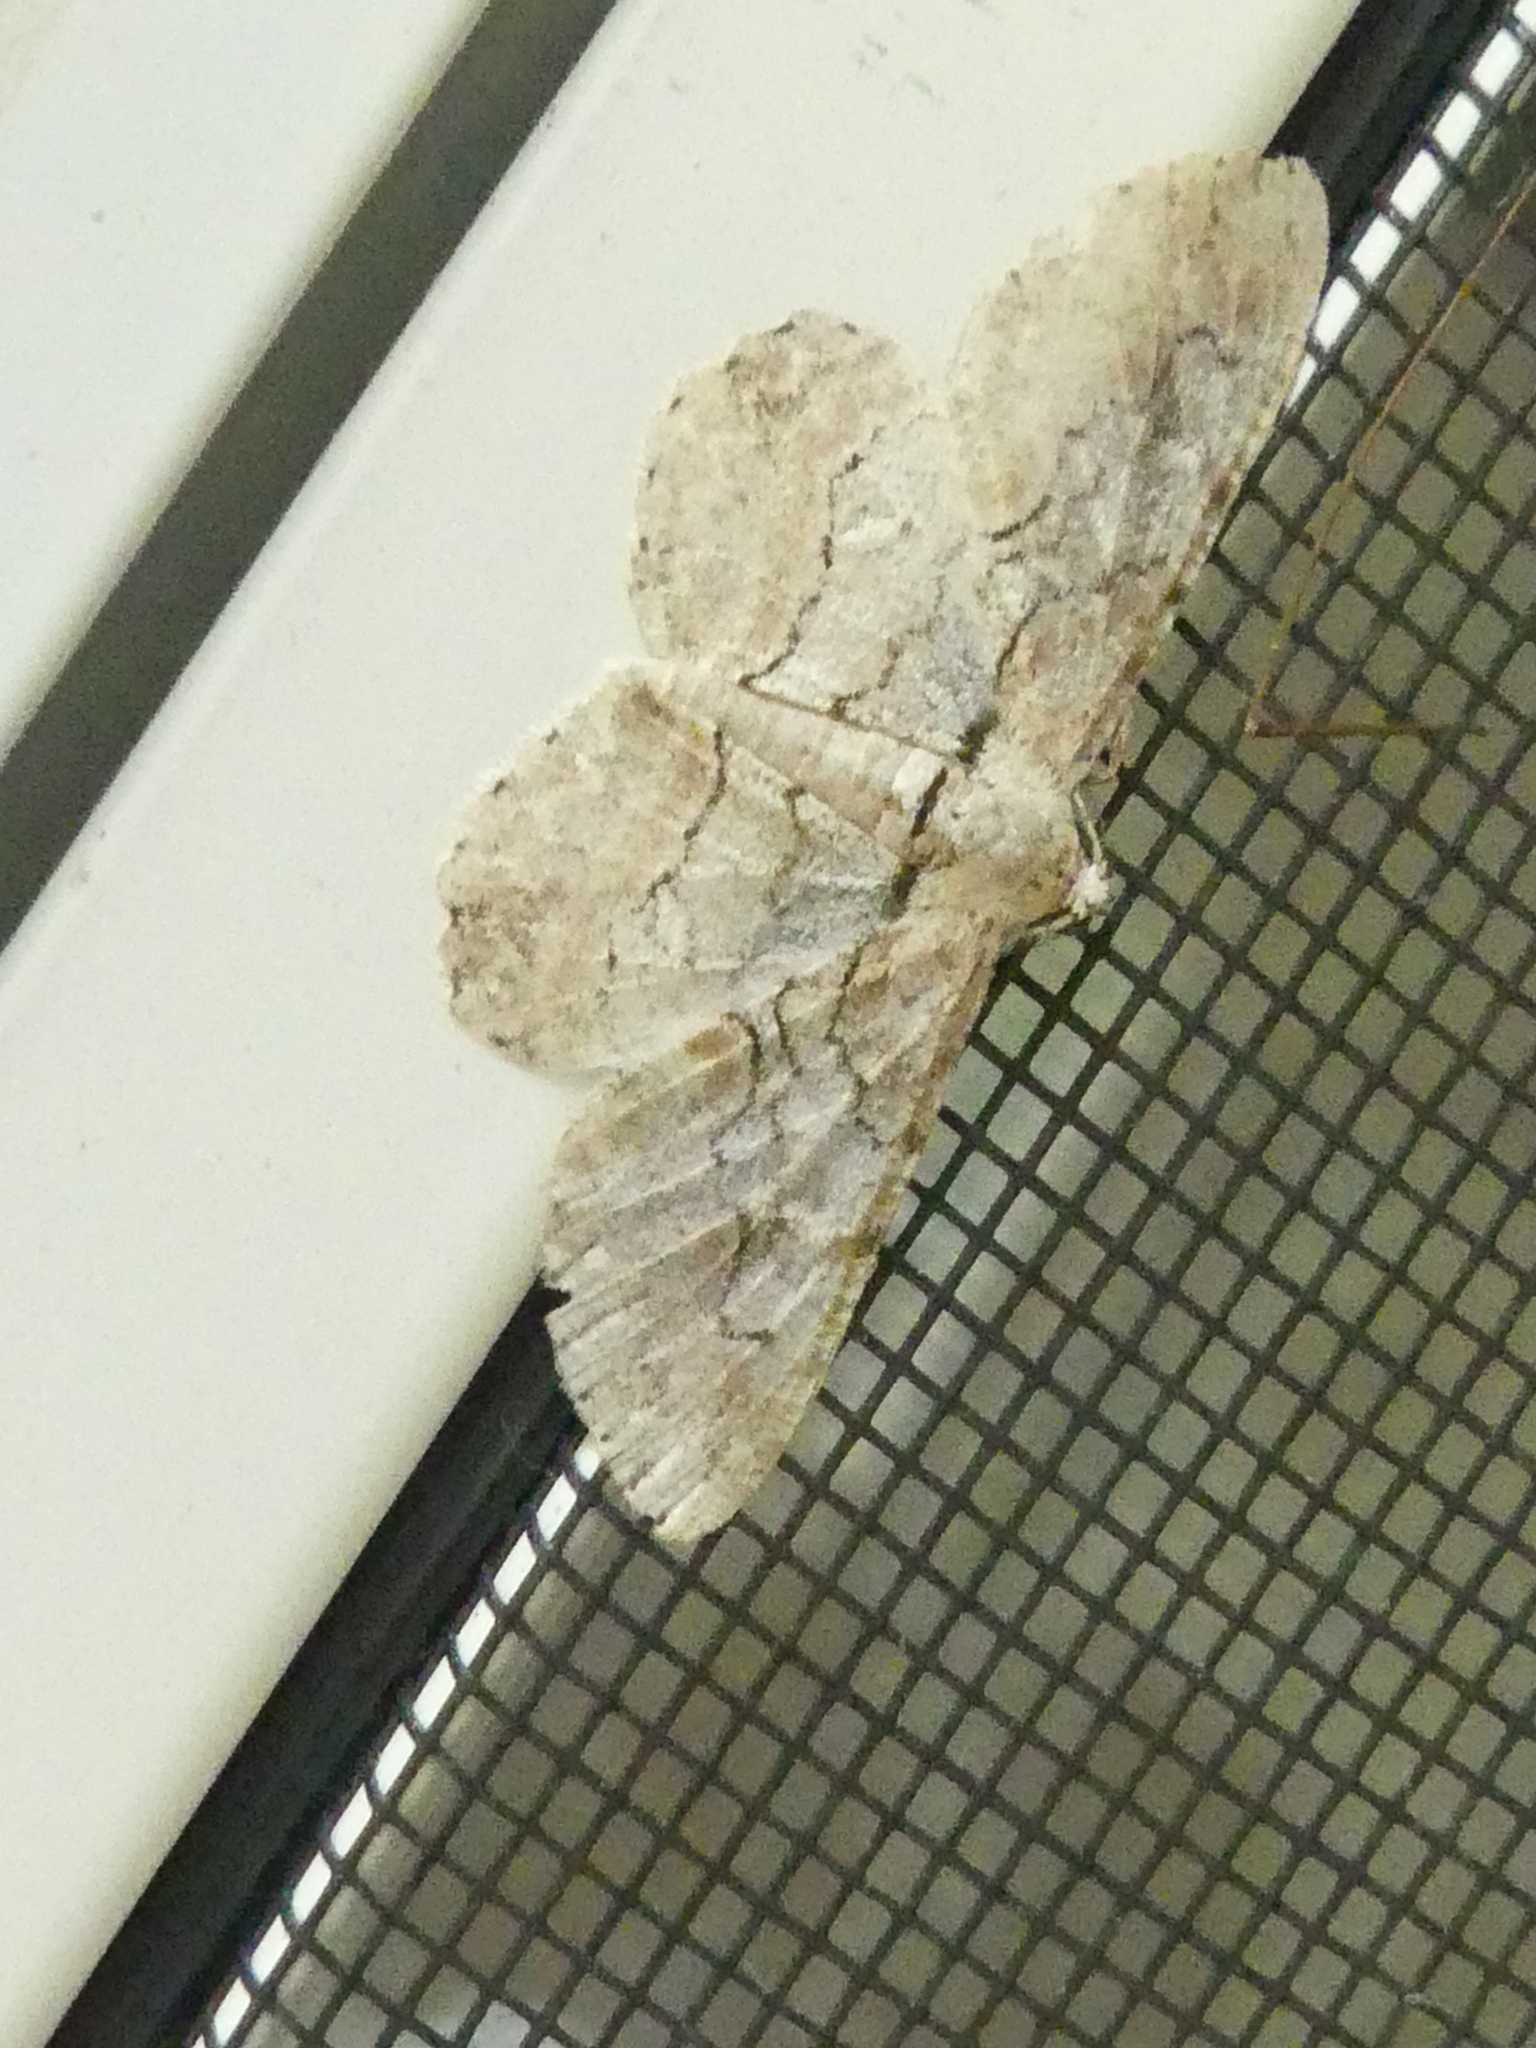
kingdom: Animalia
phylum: Arthropoda
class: Insecta
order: Lepidoptera
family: Geometridae
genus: Iridopsis
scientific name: Iridopsis defectaria
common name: Brown-shaded gray
